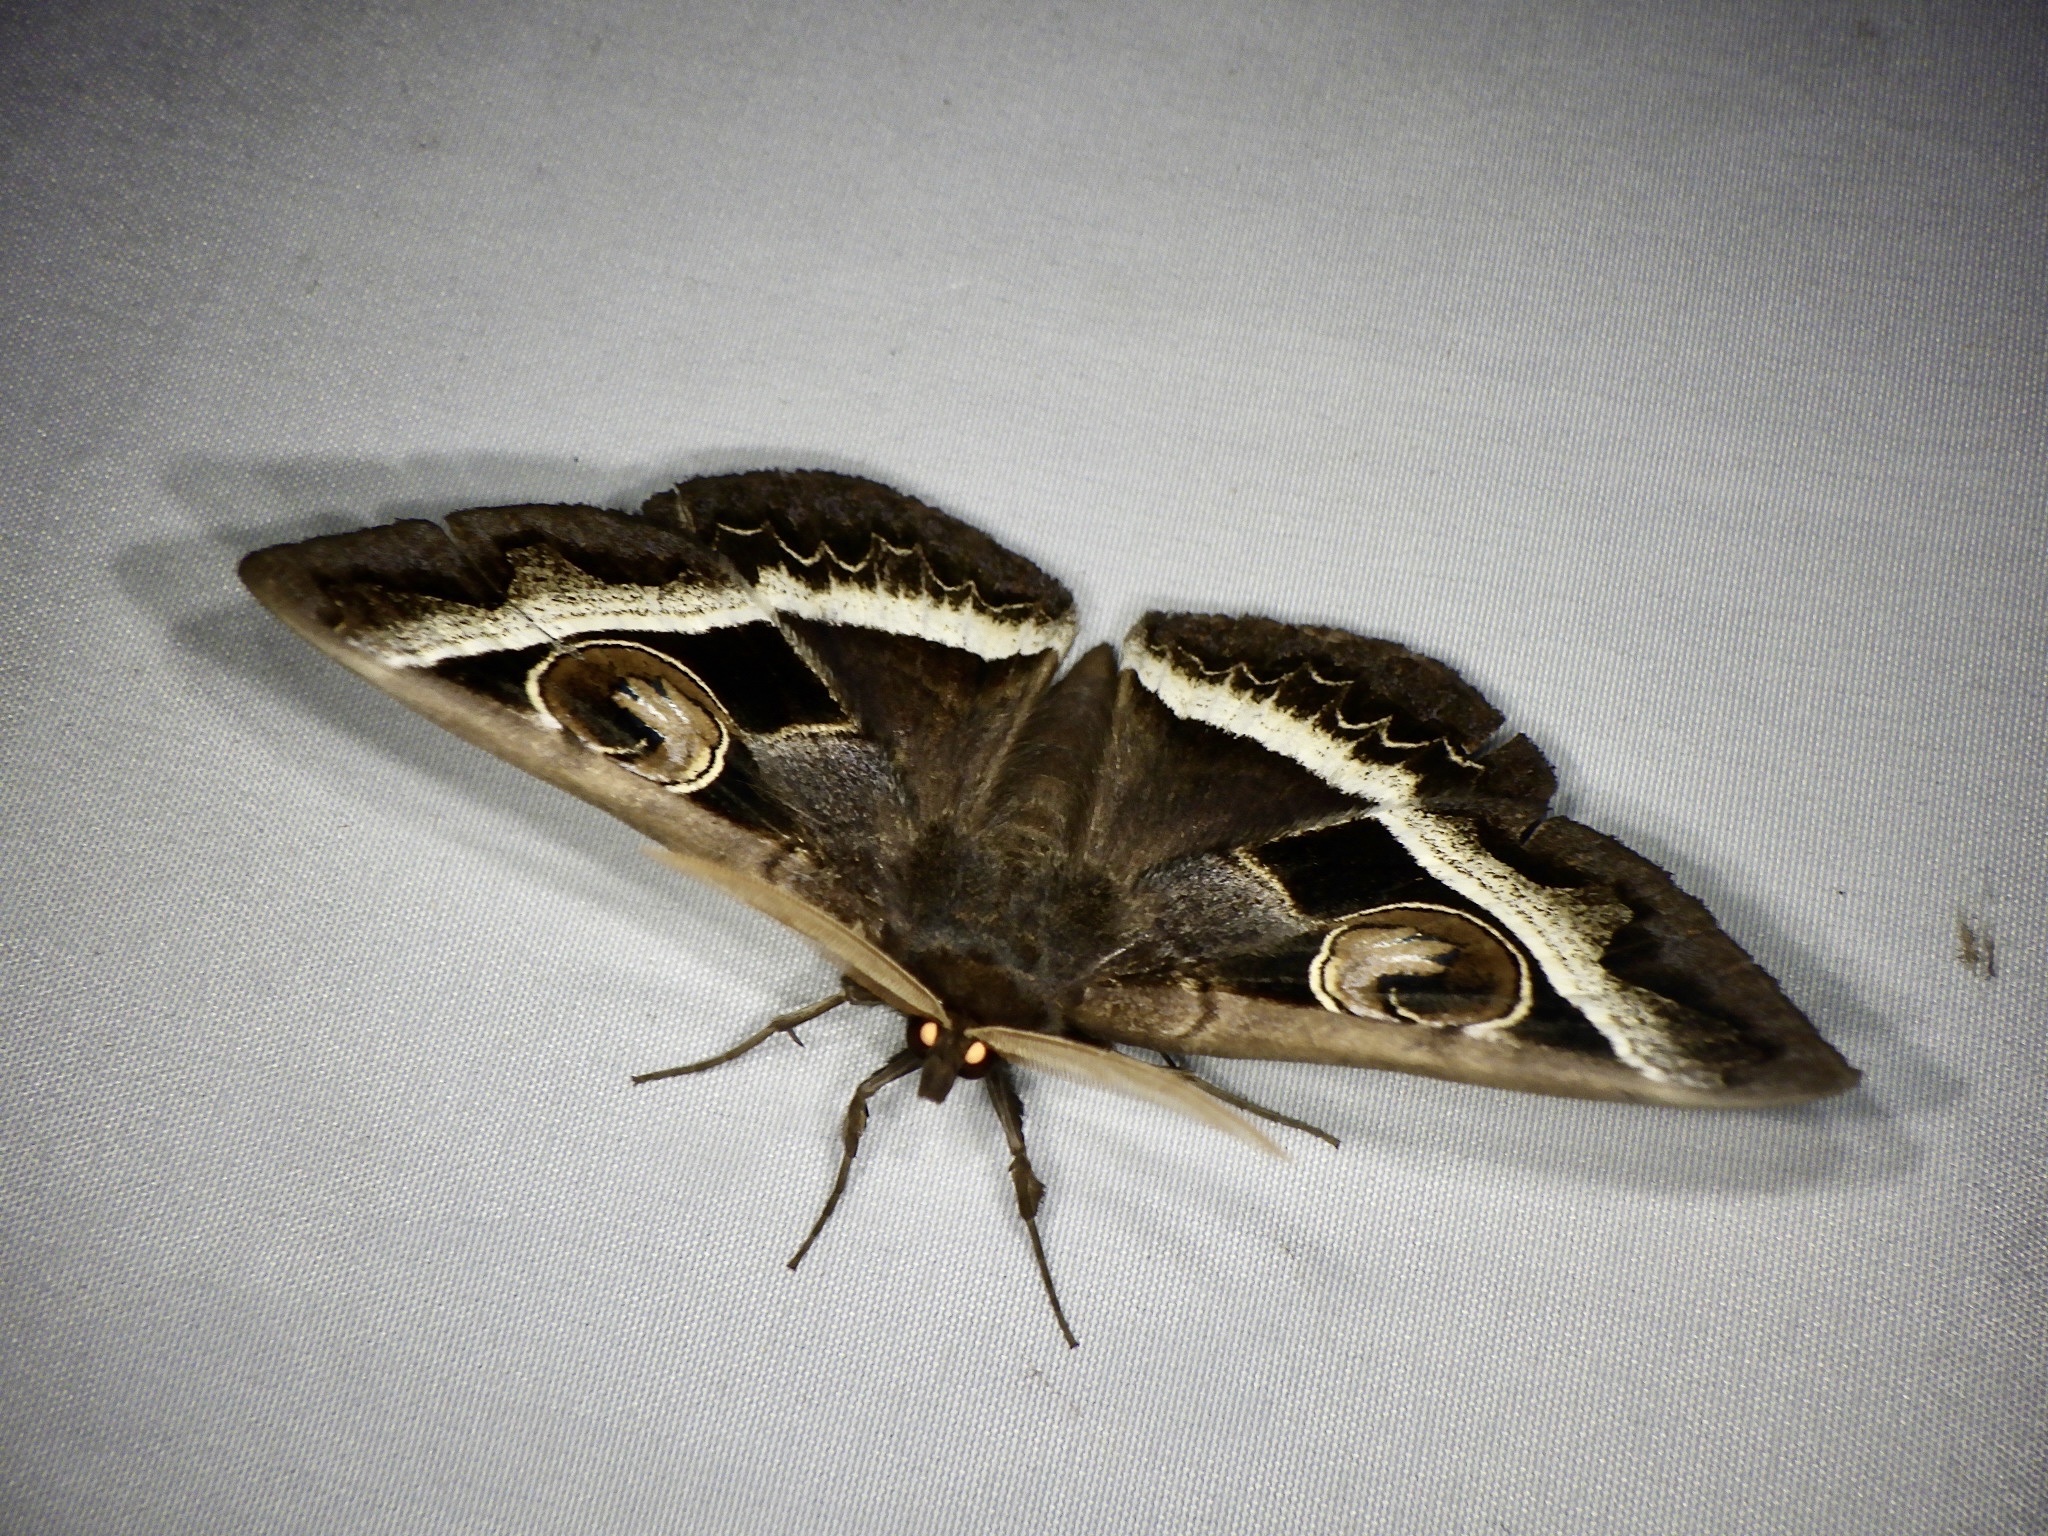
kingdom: Animalia
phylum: Arthropoda
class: Insecta
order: Lepidoptera
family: Erebidae
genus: Metopta
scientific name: Metopta rectifasciata
